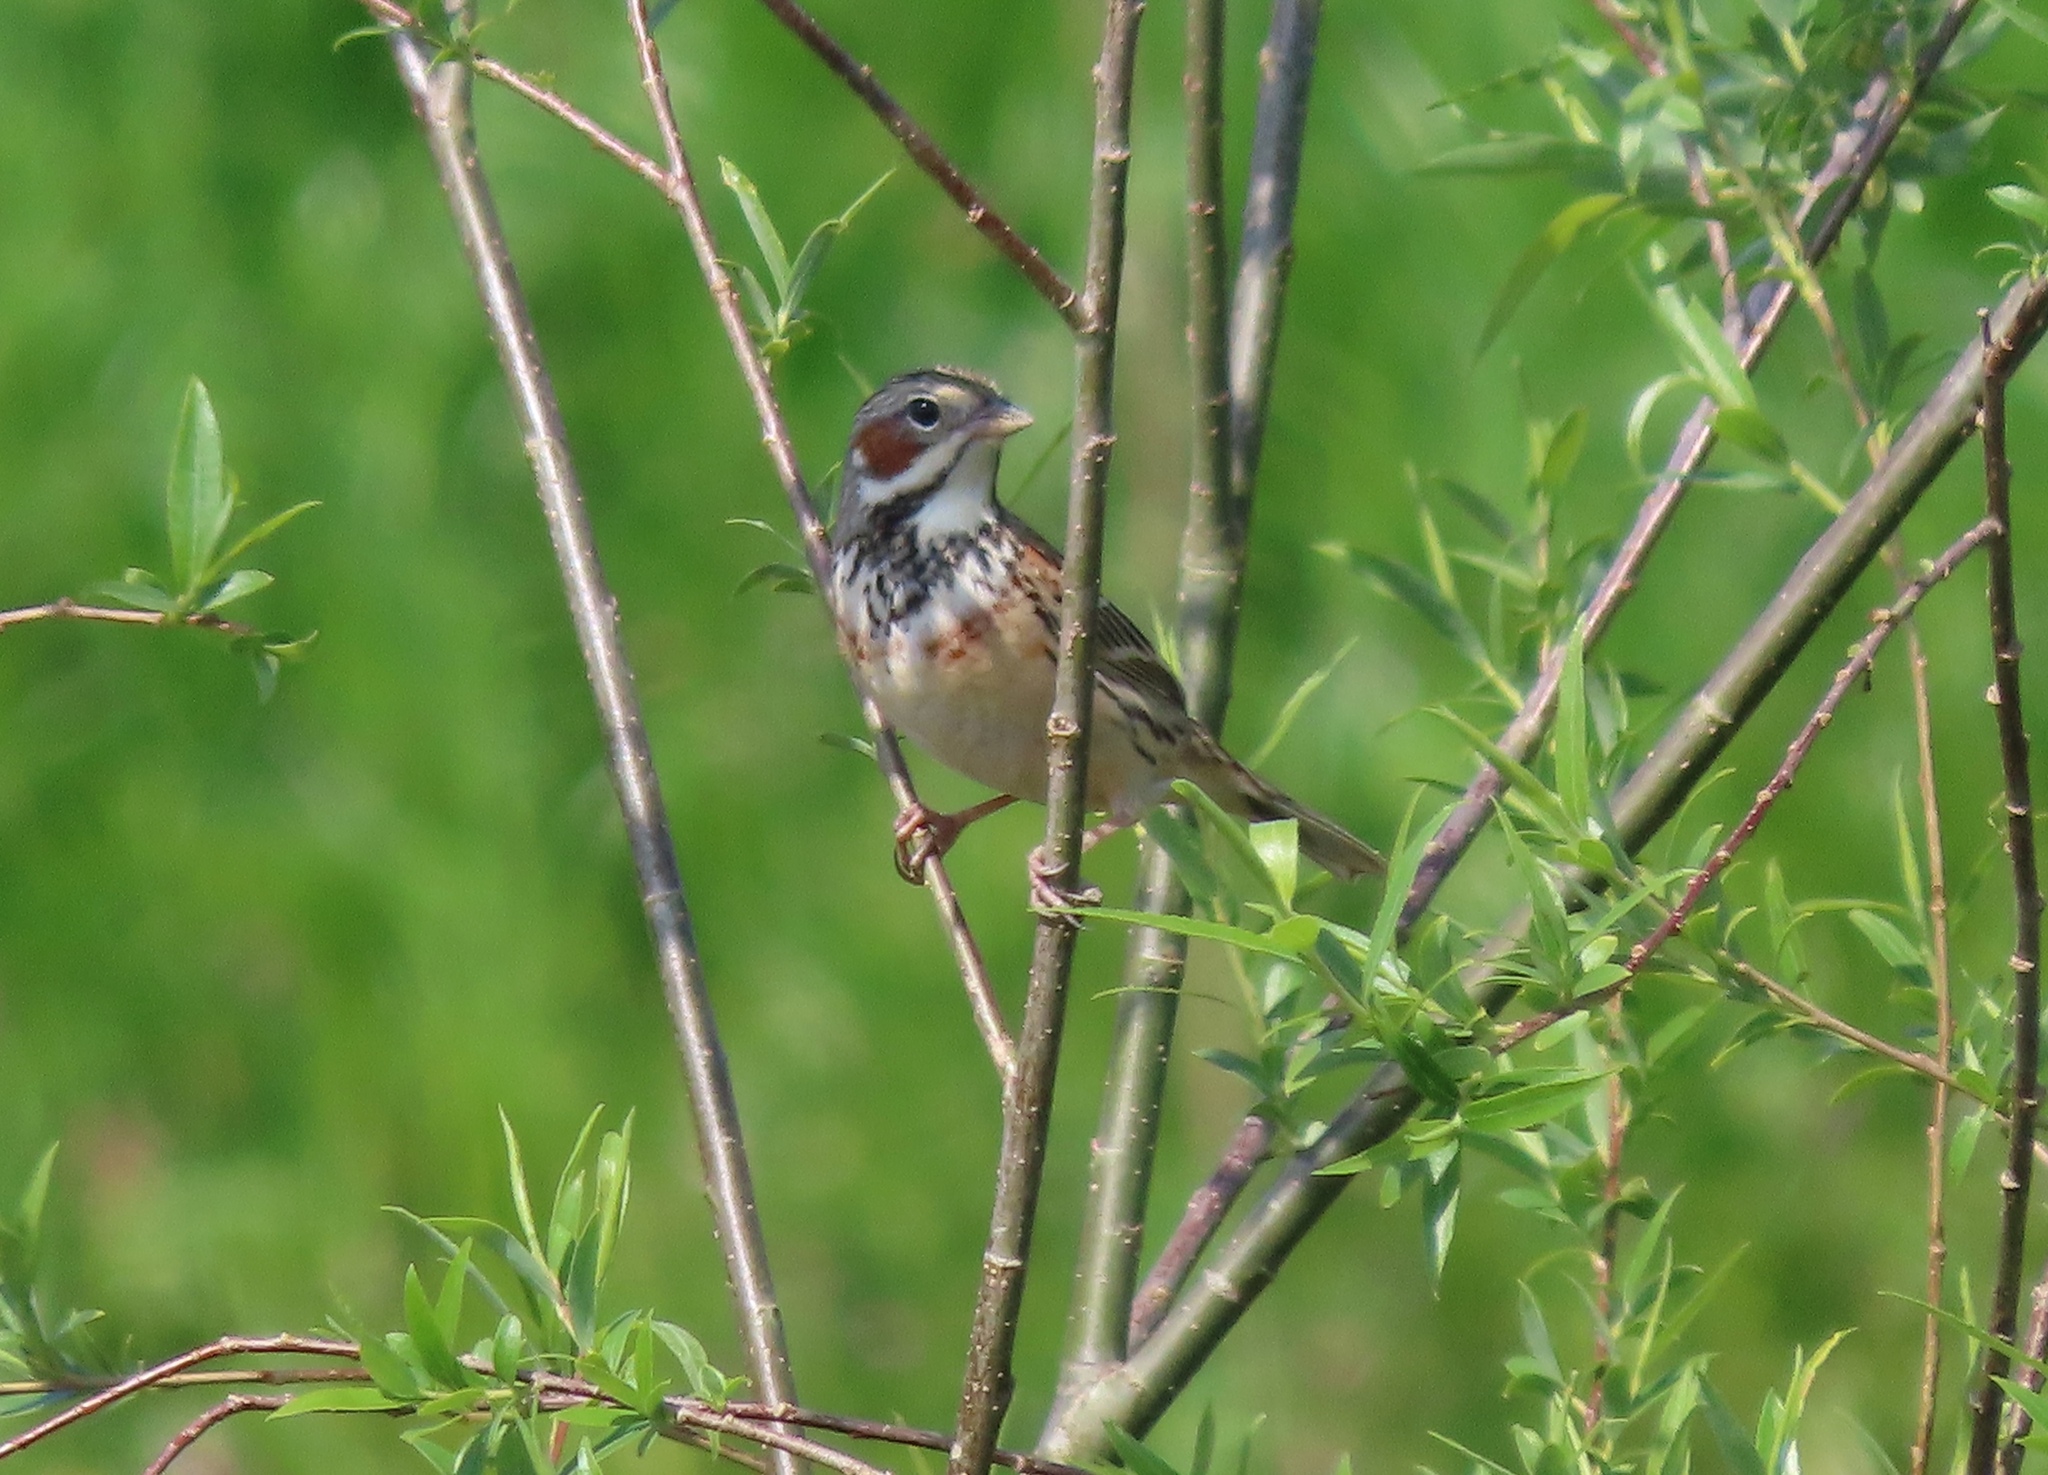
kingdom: Animalia
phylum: Chordata
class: Aves
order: Passeriformes
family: Emberizidae
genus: Emberiza
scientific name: Emberiza fucata
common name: Chestnut-eared bunting
